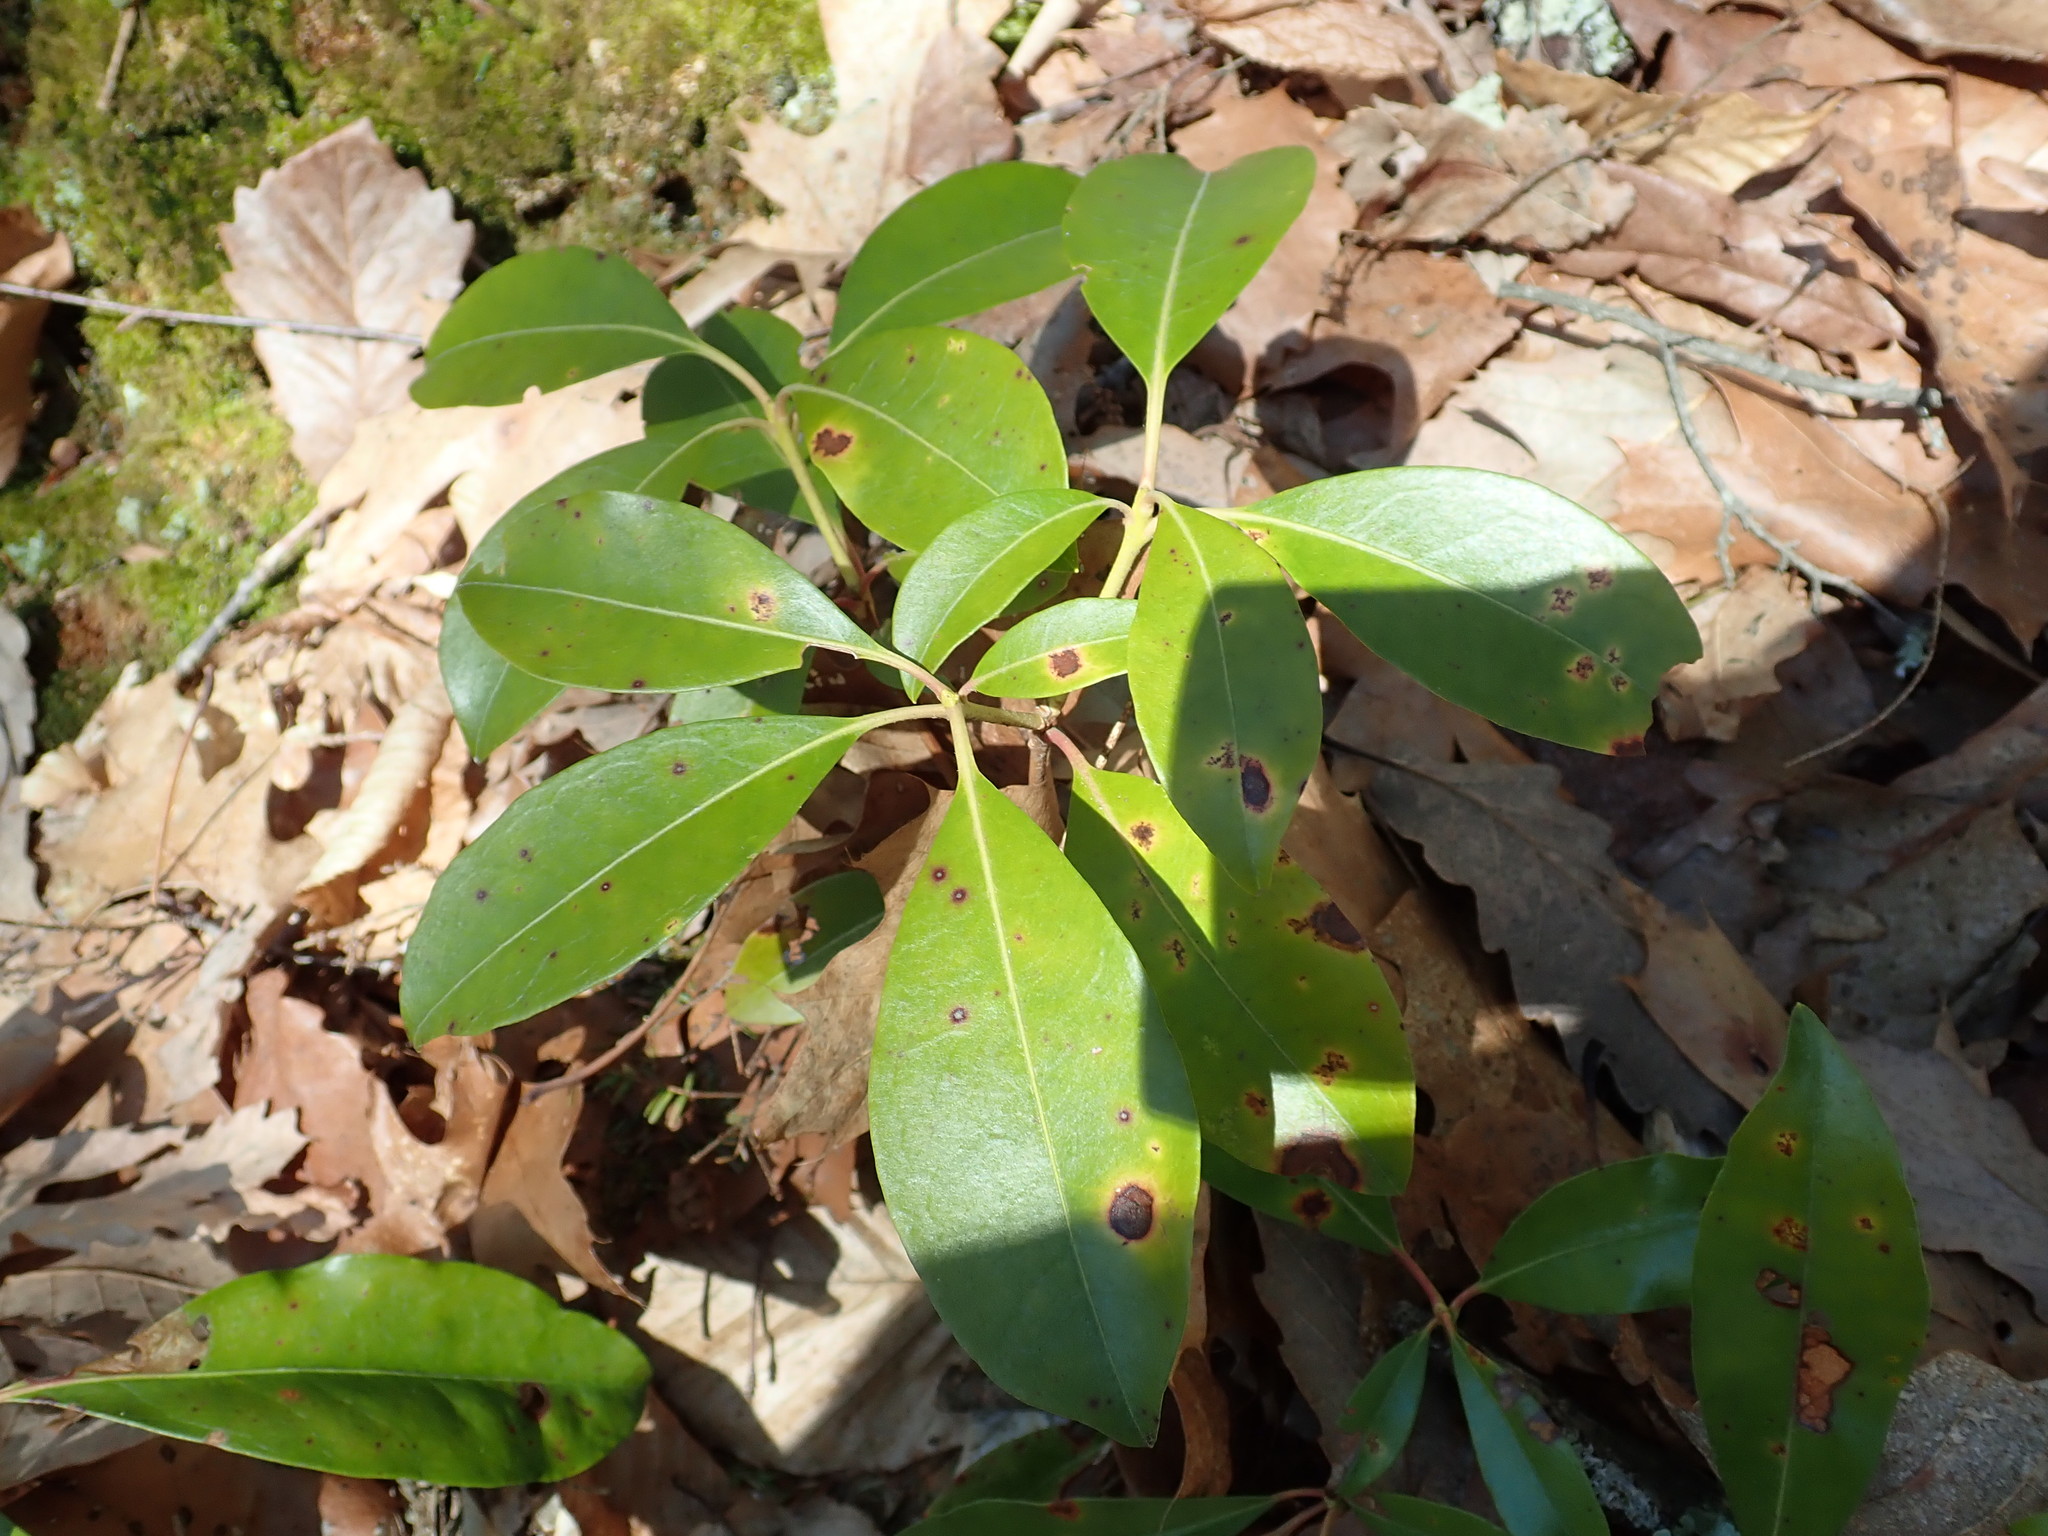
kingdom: Plantae
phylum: Tracheophyta
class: Magnoliopsida
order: Ericales
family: Ericaceae
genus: Kalmia
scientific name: Kalmia latifolia
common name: Mountain-laurel
